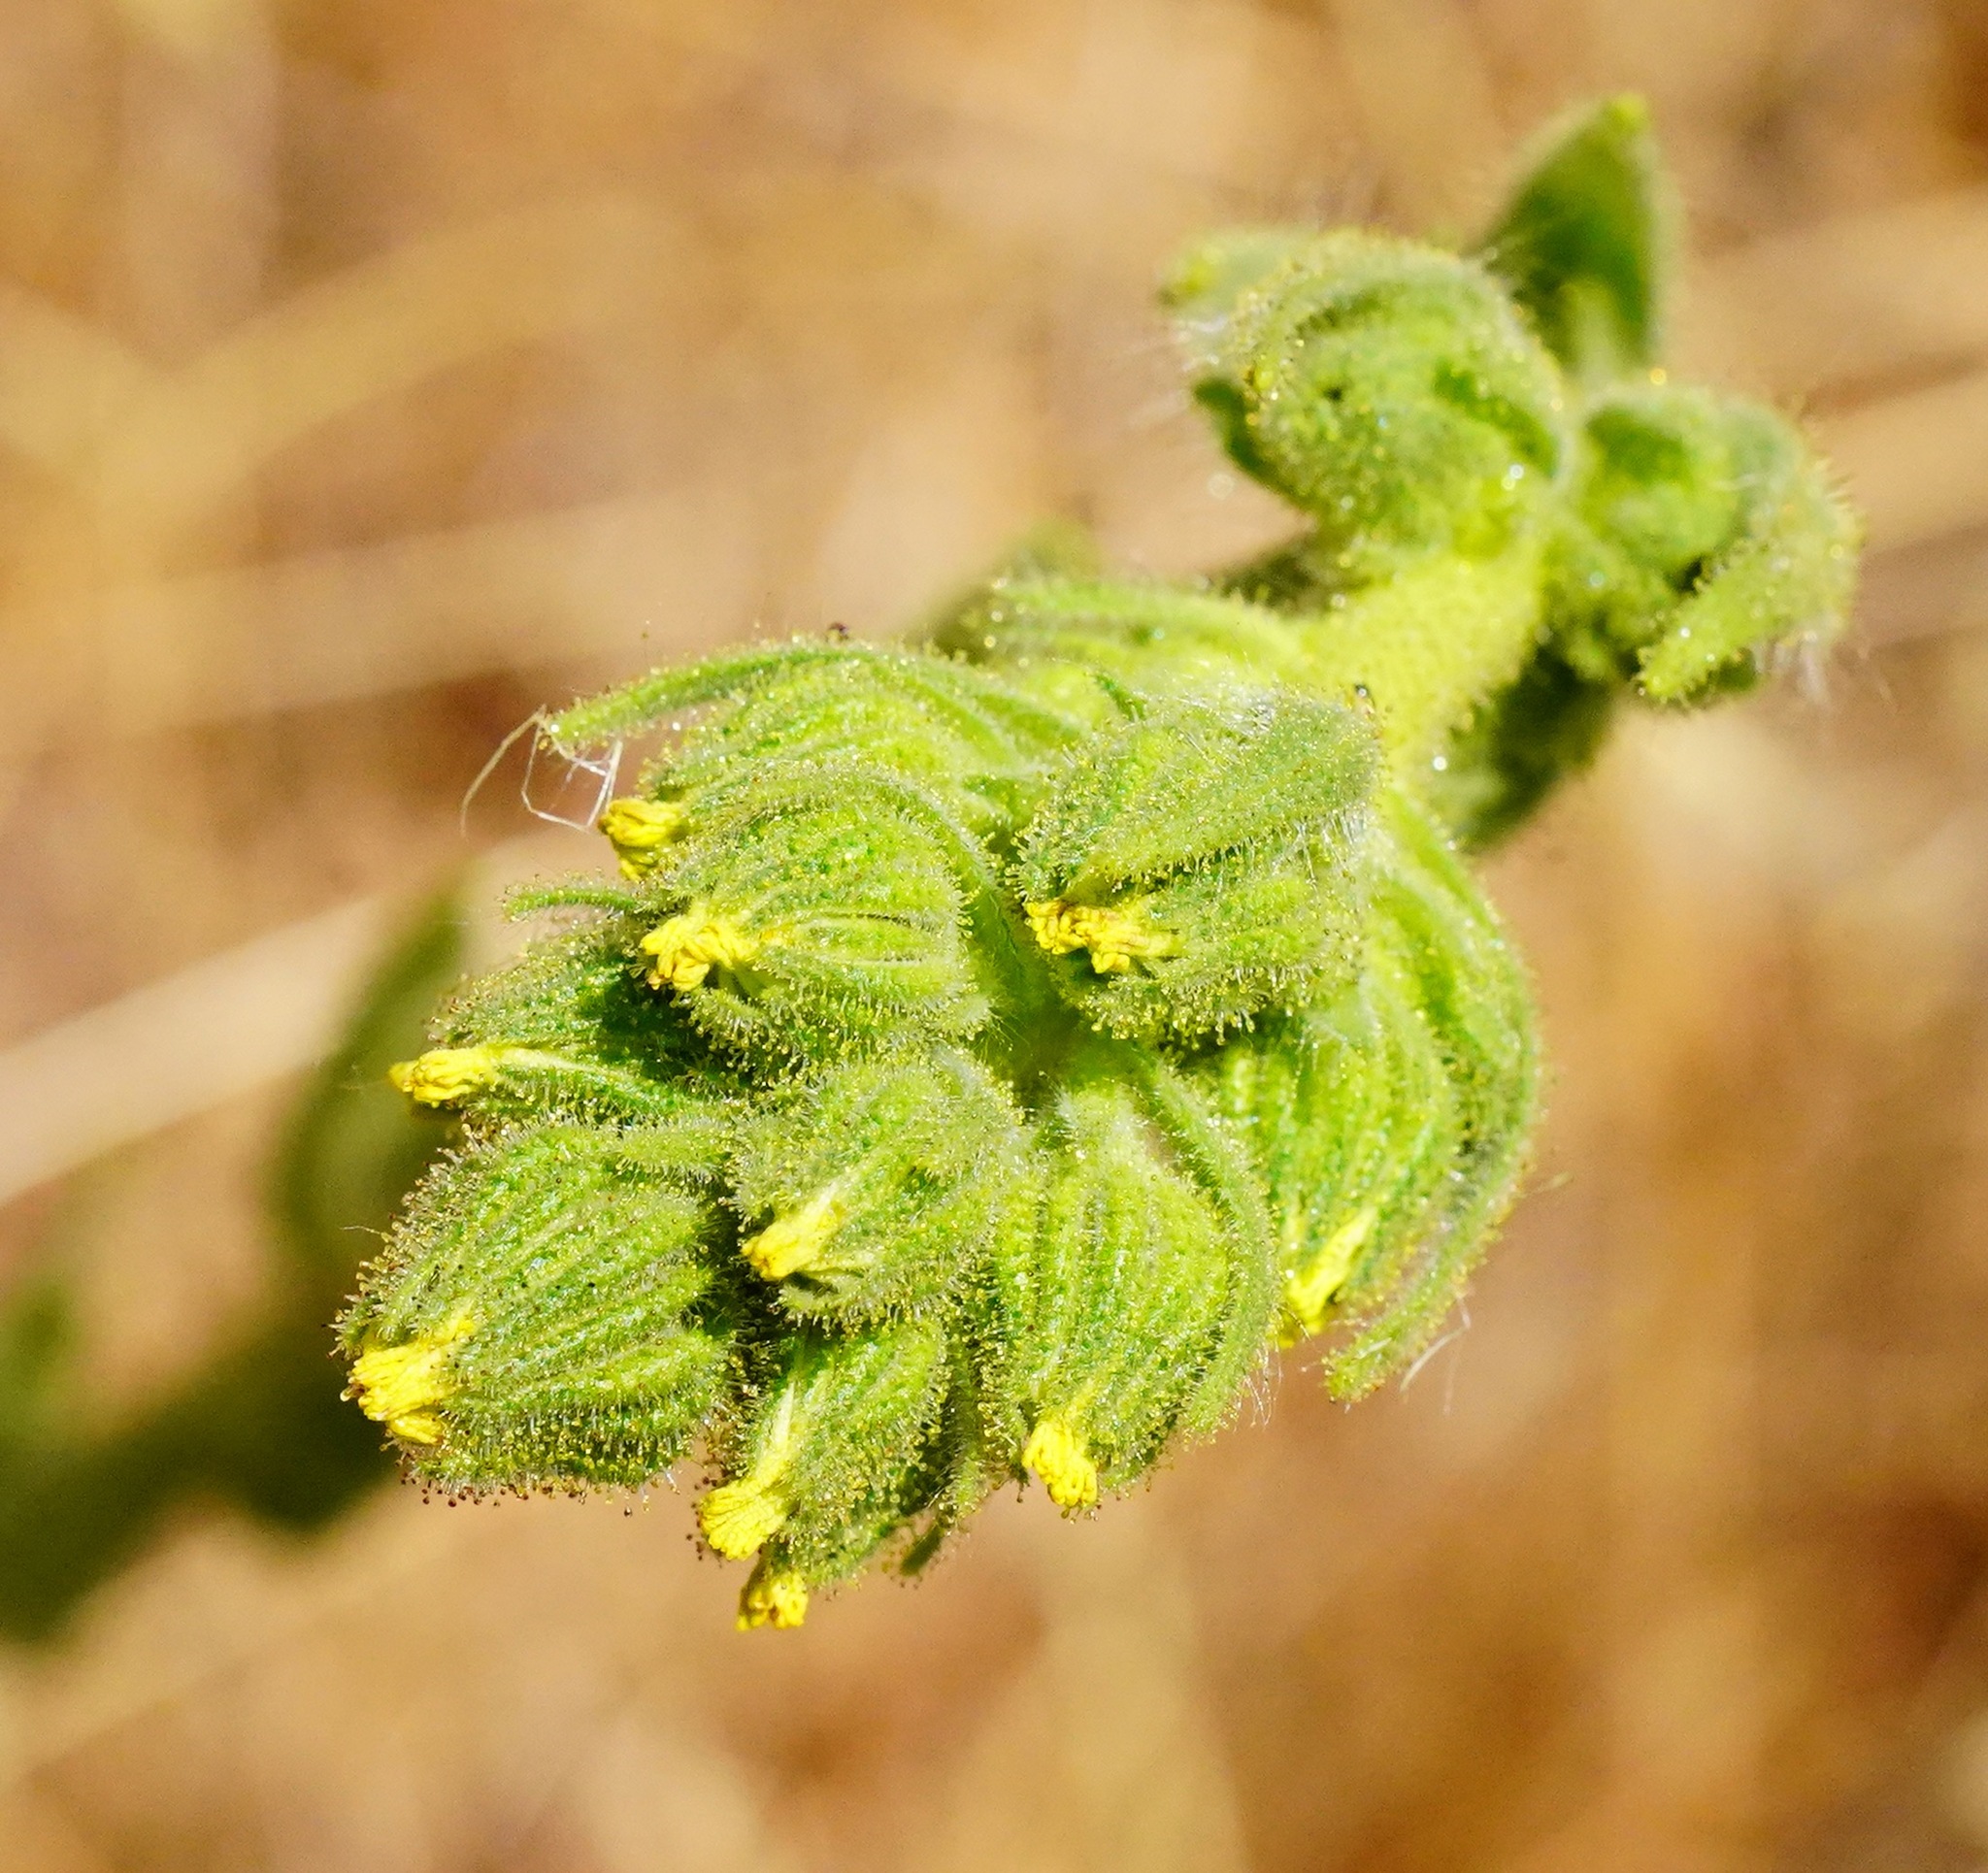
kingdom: Plantae
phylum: Tracheophyta
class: Magnoliopsida
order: Asterales
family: Asteraceae
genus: Madia
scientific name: Madia sativa
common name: Coast tarweed
